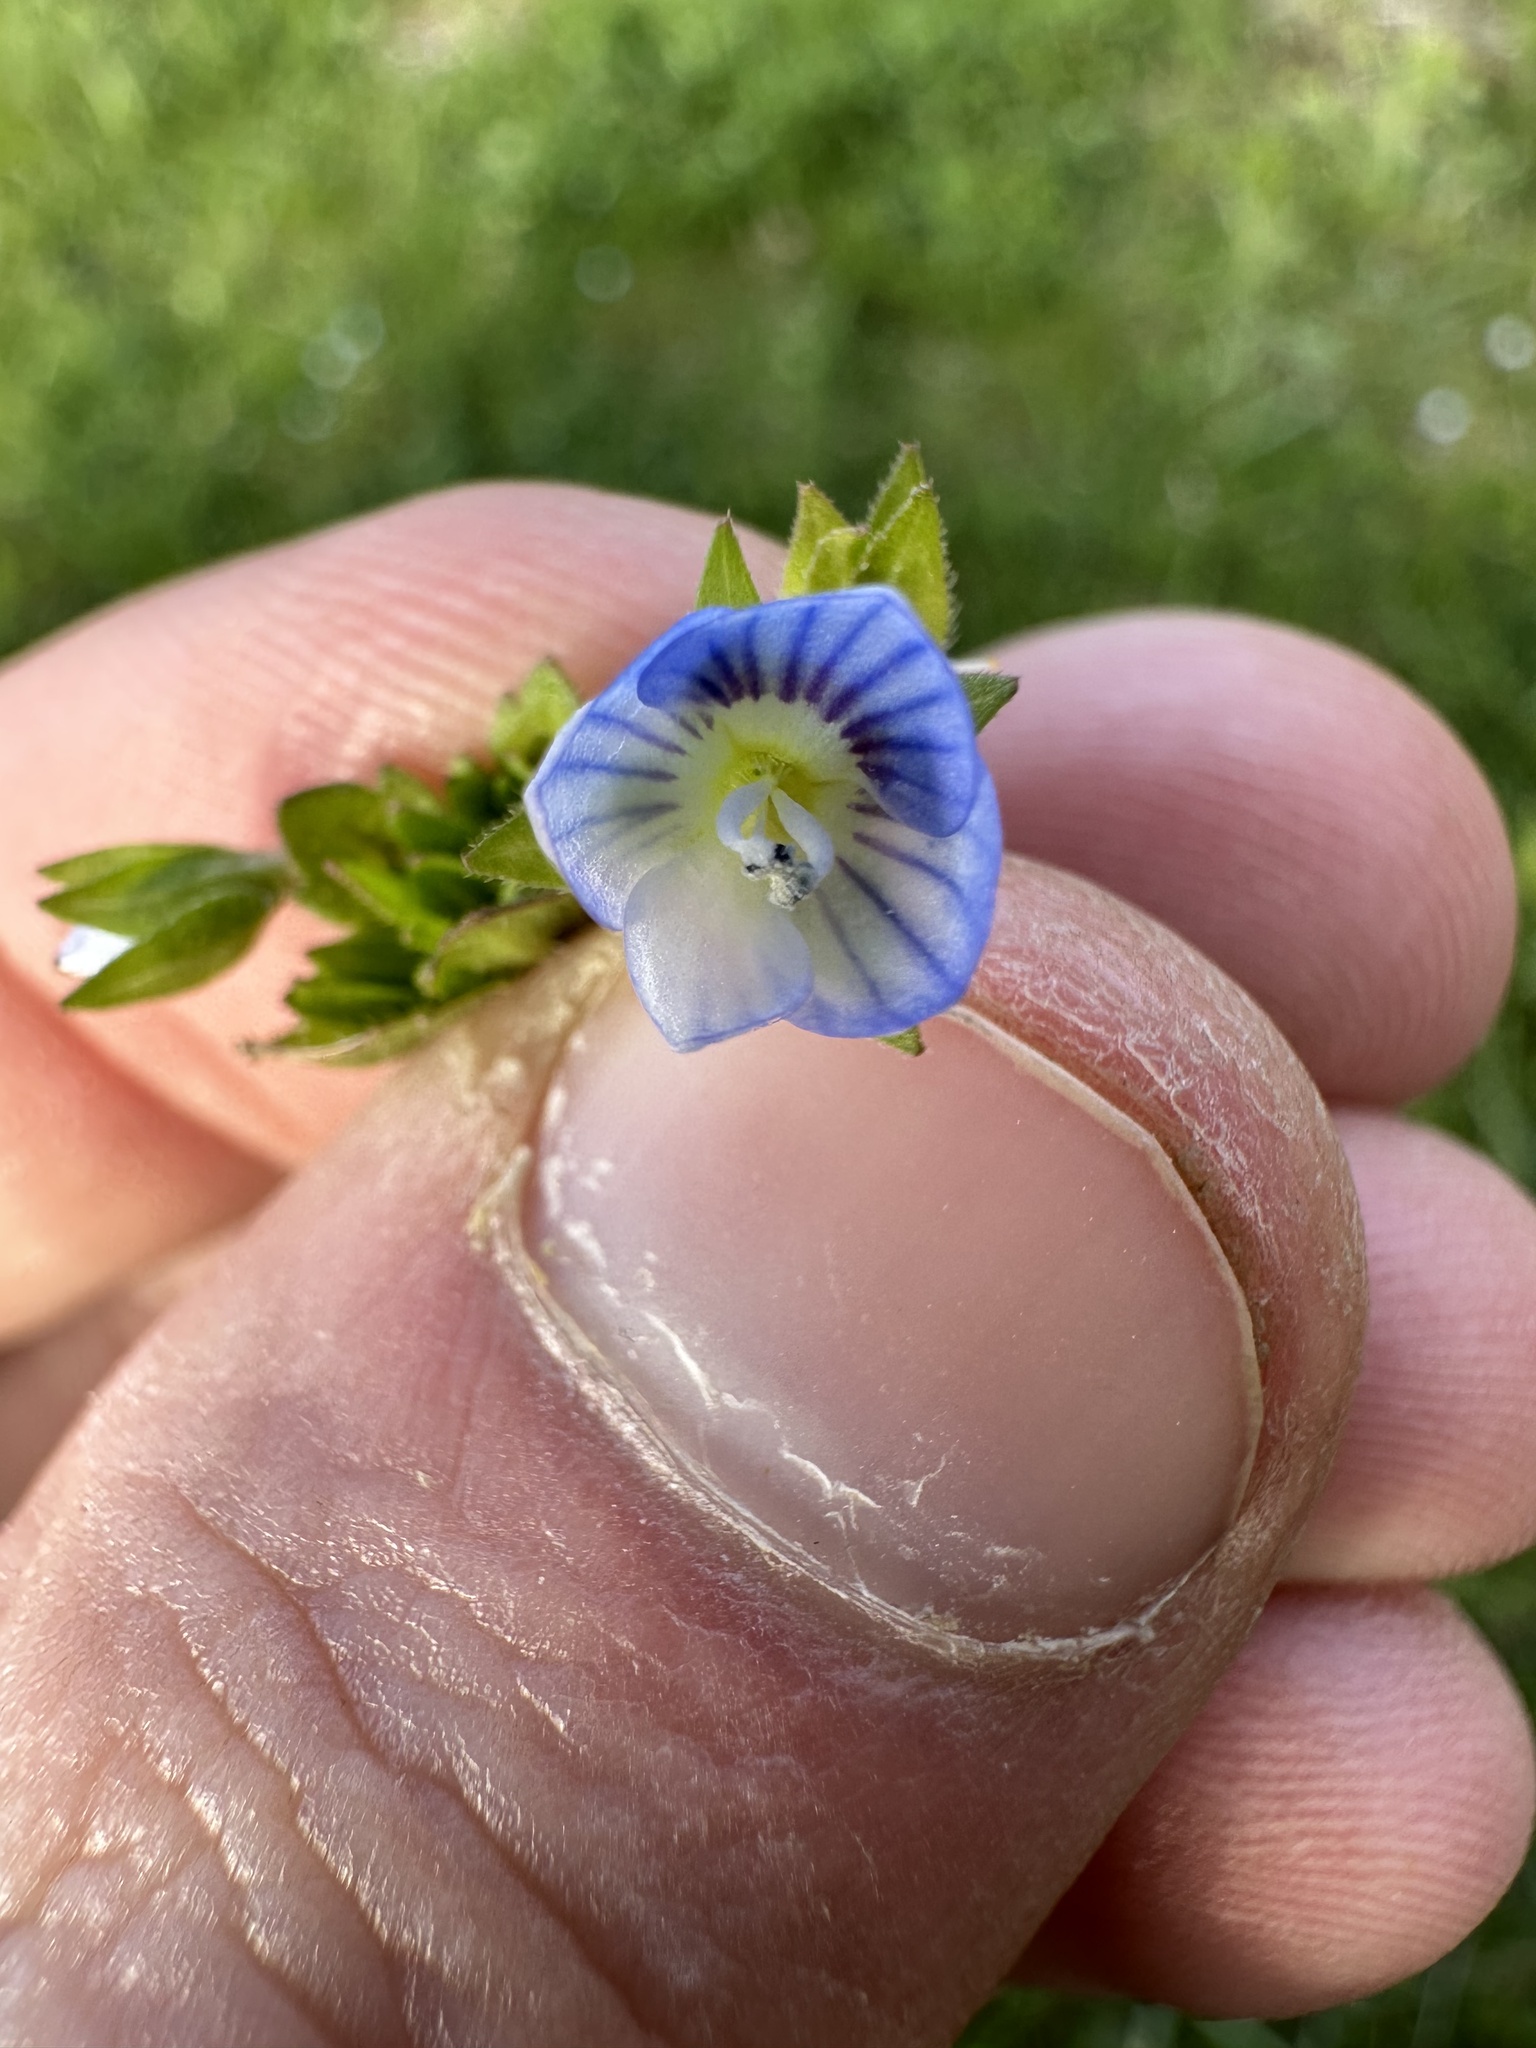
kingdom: Plantae
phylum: Tracheophyta
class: Magnoliopsida
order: Lamiales
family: Plantaginaceae
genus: Veronica
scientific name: Veronica persica
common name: Common field-speedwell
